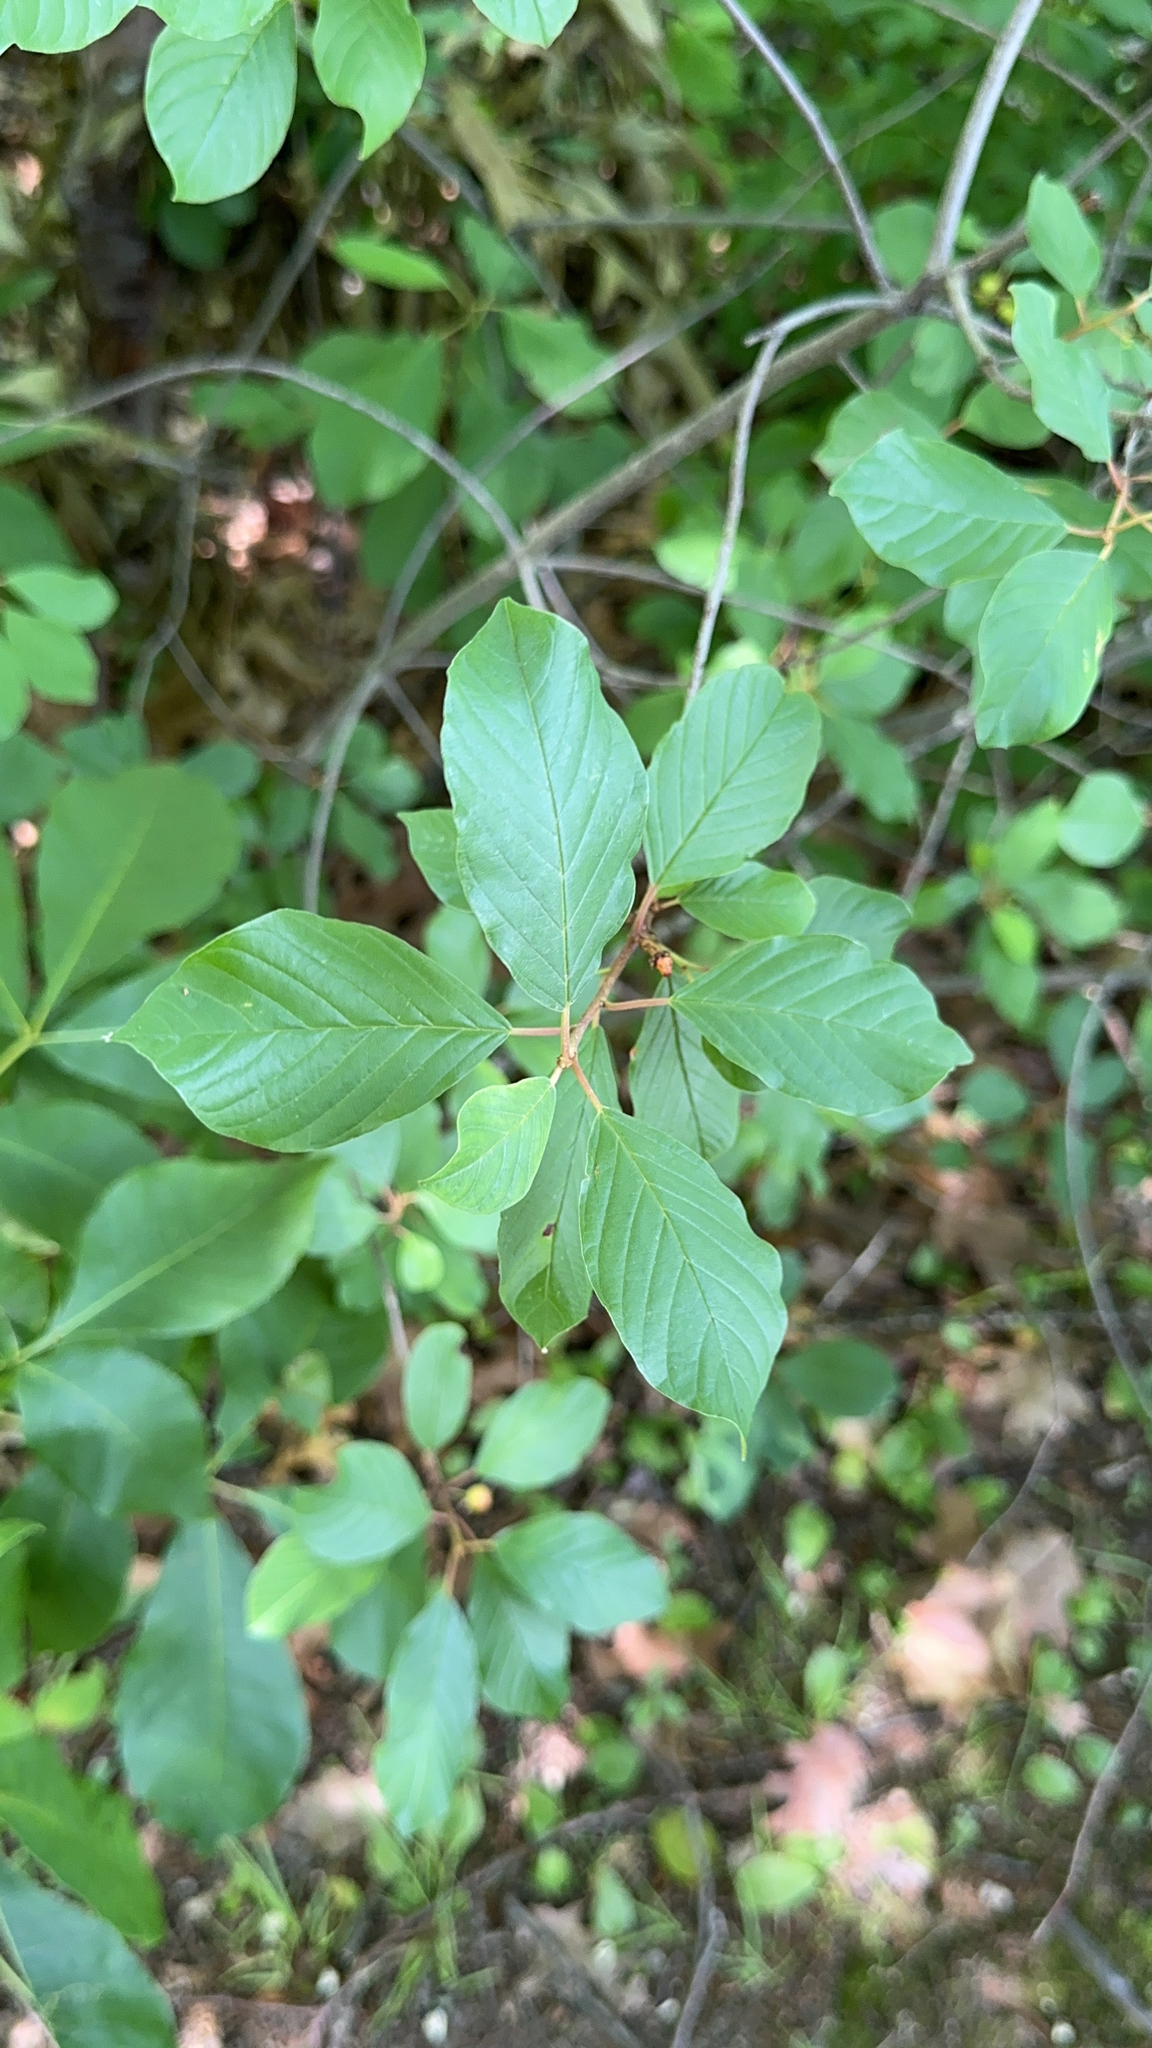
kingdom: Plantae
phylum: Tracheophyta
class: Magnoliopsida
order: Rosales
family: Rhamnaceae
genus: Frangula
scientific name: Frangula alnus
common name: Alder buckthorn
